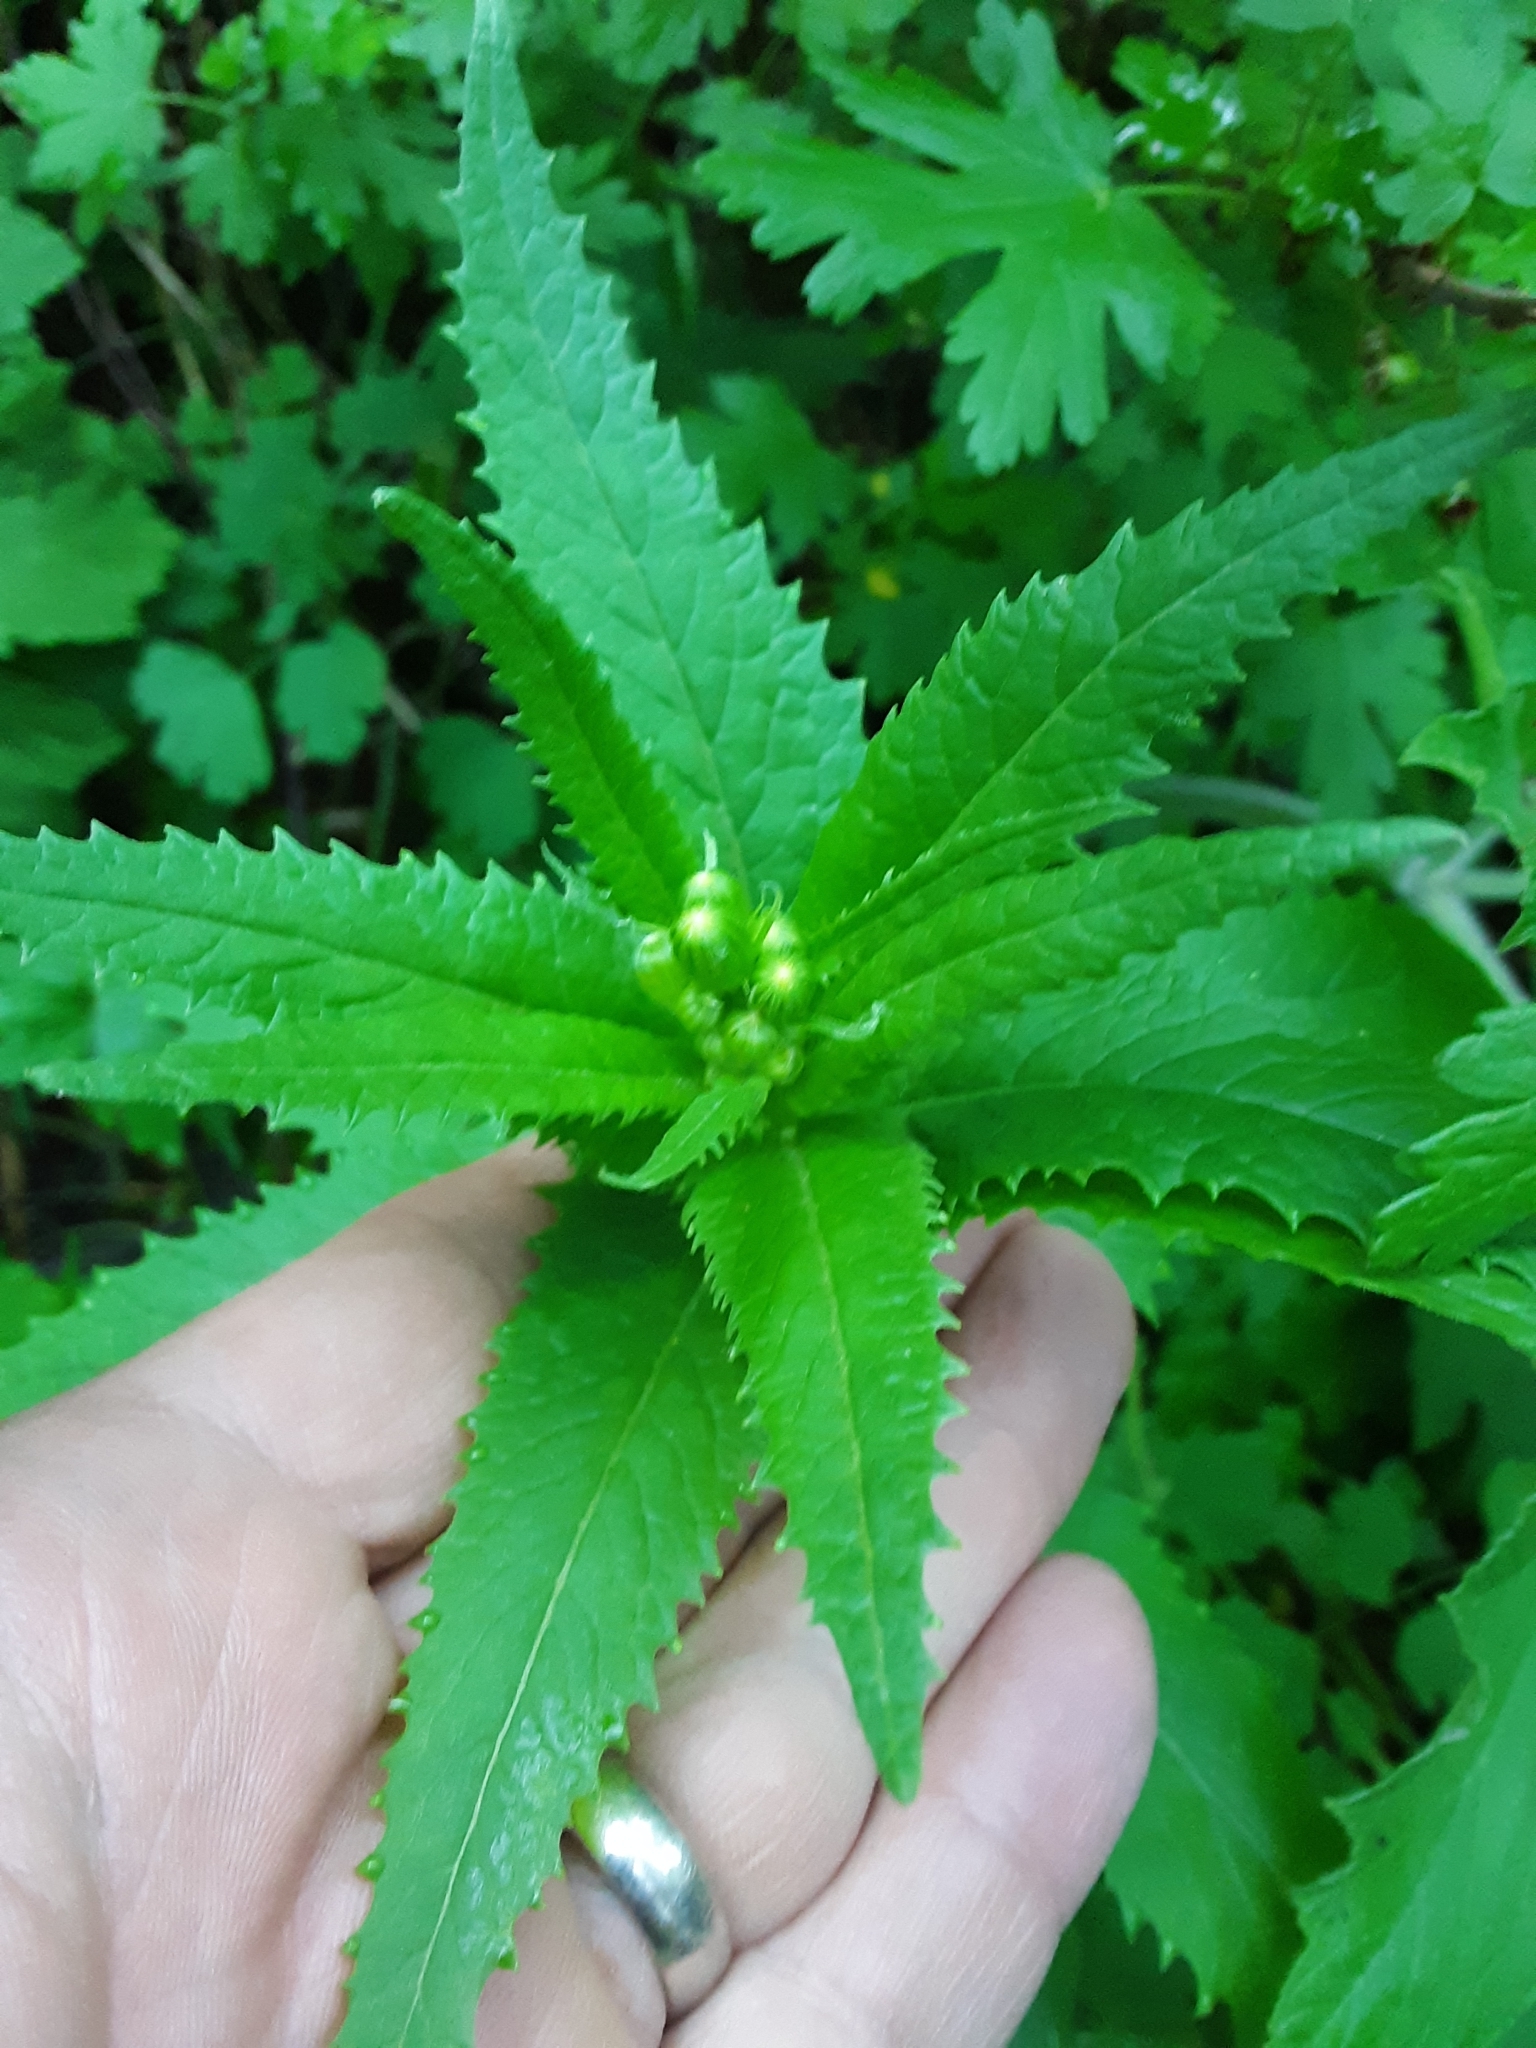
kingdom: Plantae
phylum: Tracheophyta
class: Magnoliopsida
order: Asterales
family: Asteraceae
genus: Senecio
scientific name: Senecio triangularis
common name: Arrowleaf butterweed
